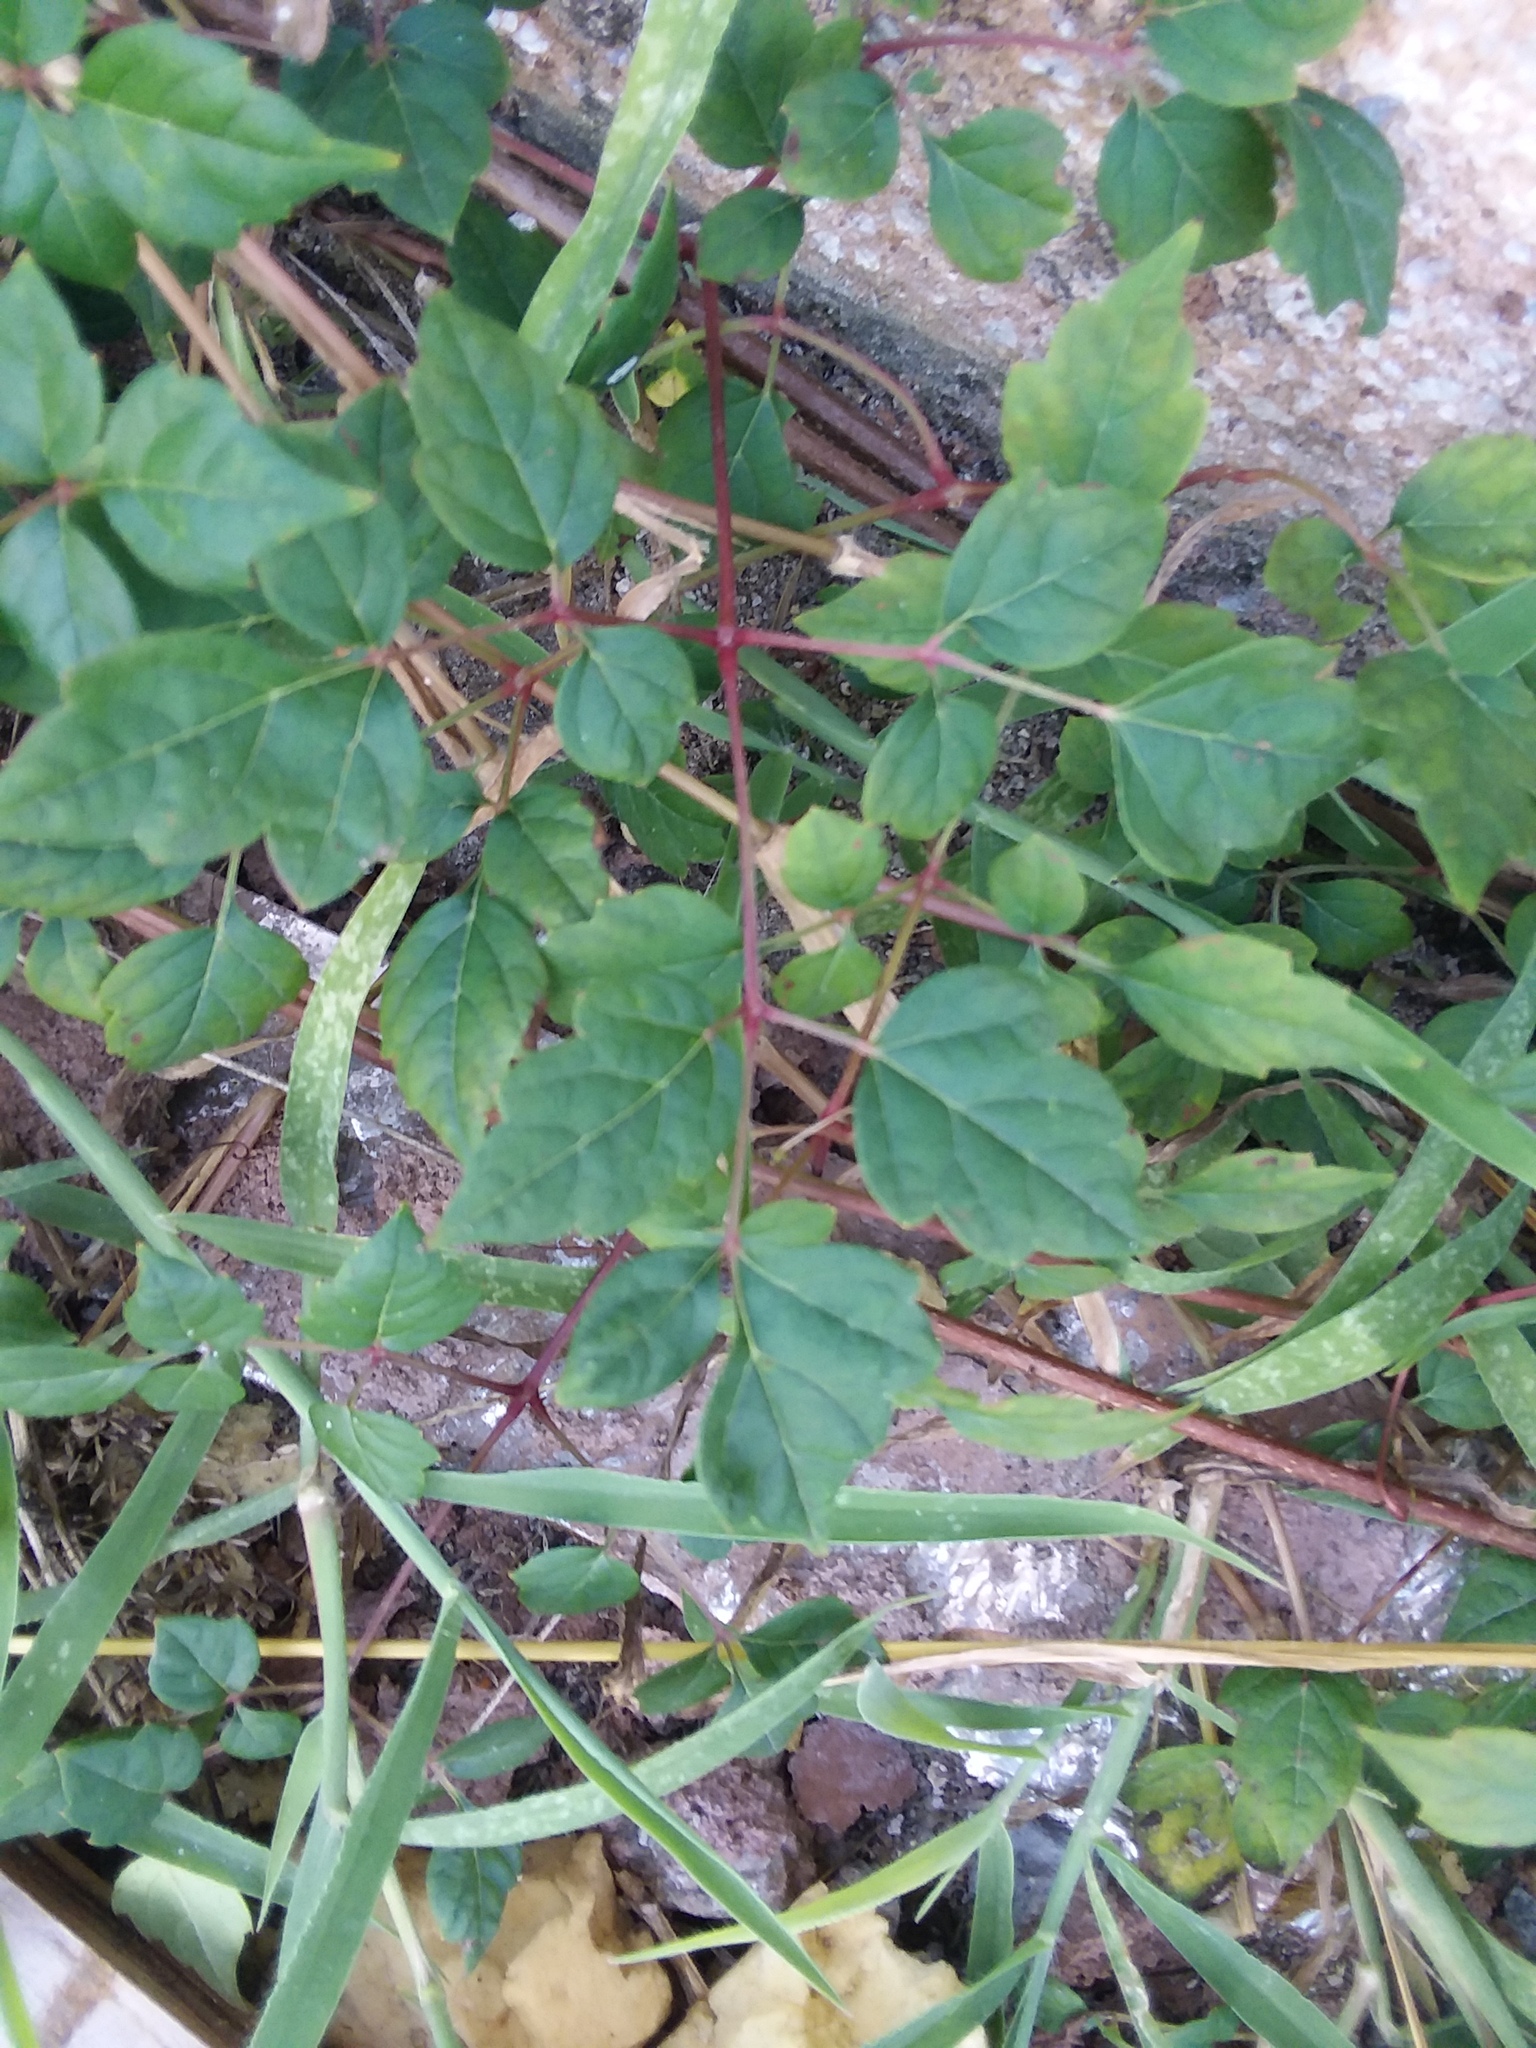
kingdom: Plantae
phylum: Tracheophyta
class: Magnoliopsida
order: Vitales
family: Vitaceae
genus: Nekemias
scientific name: Nekemias arborea
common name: Peppervine
